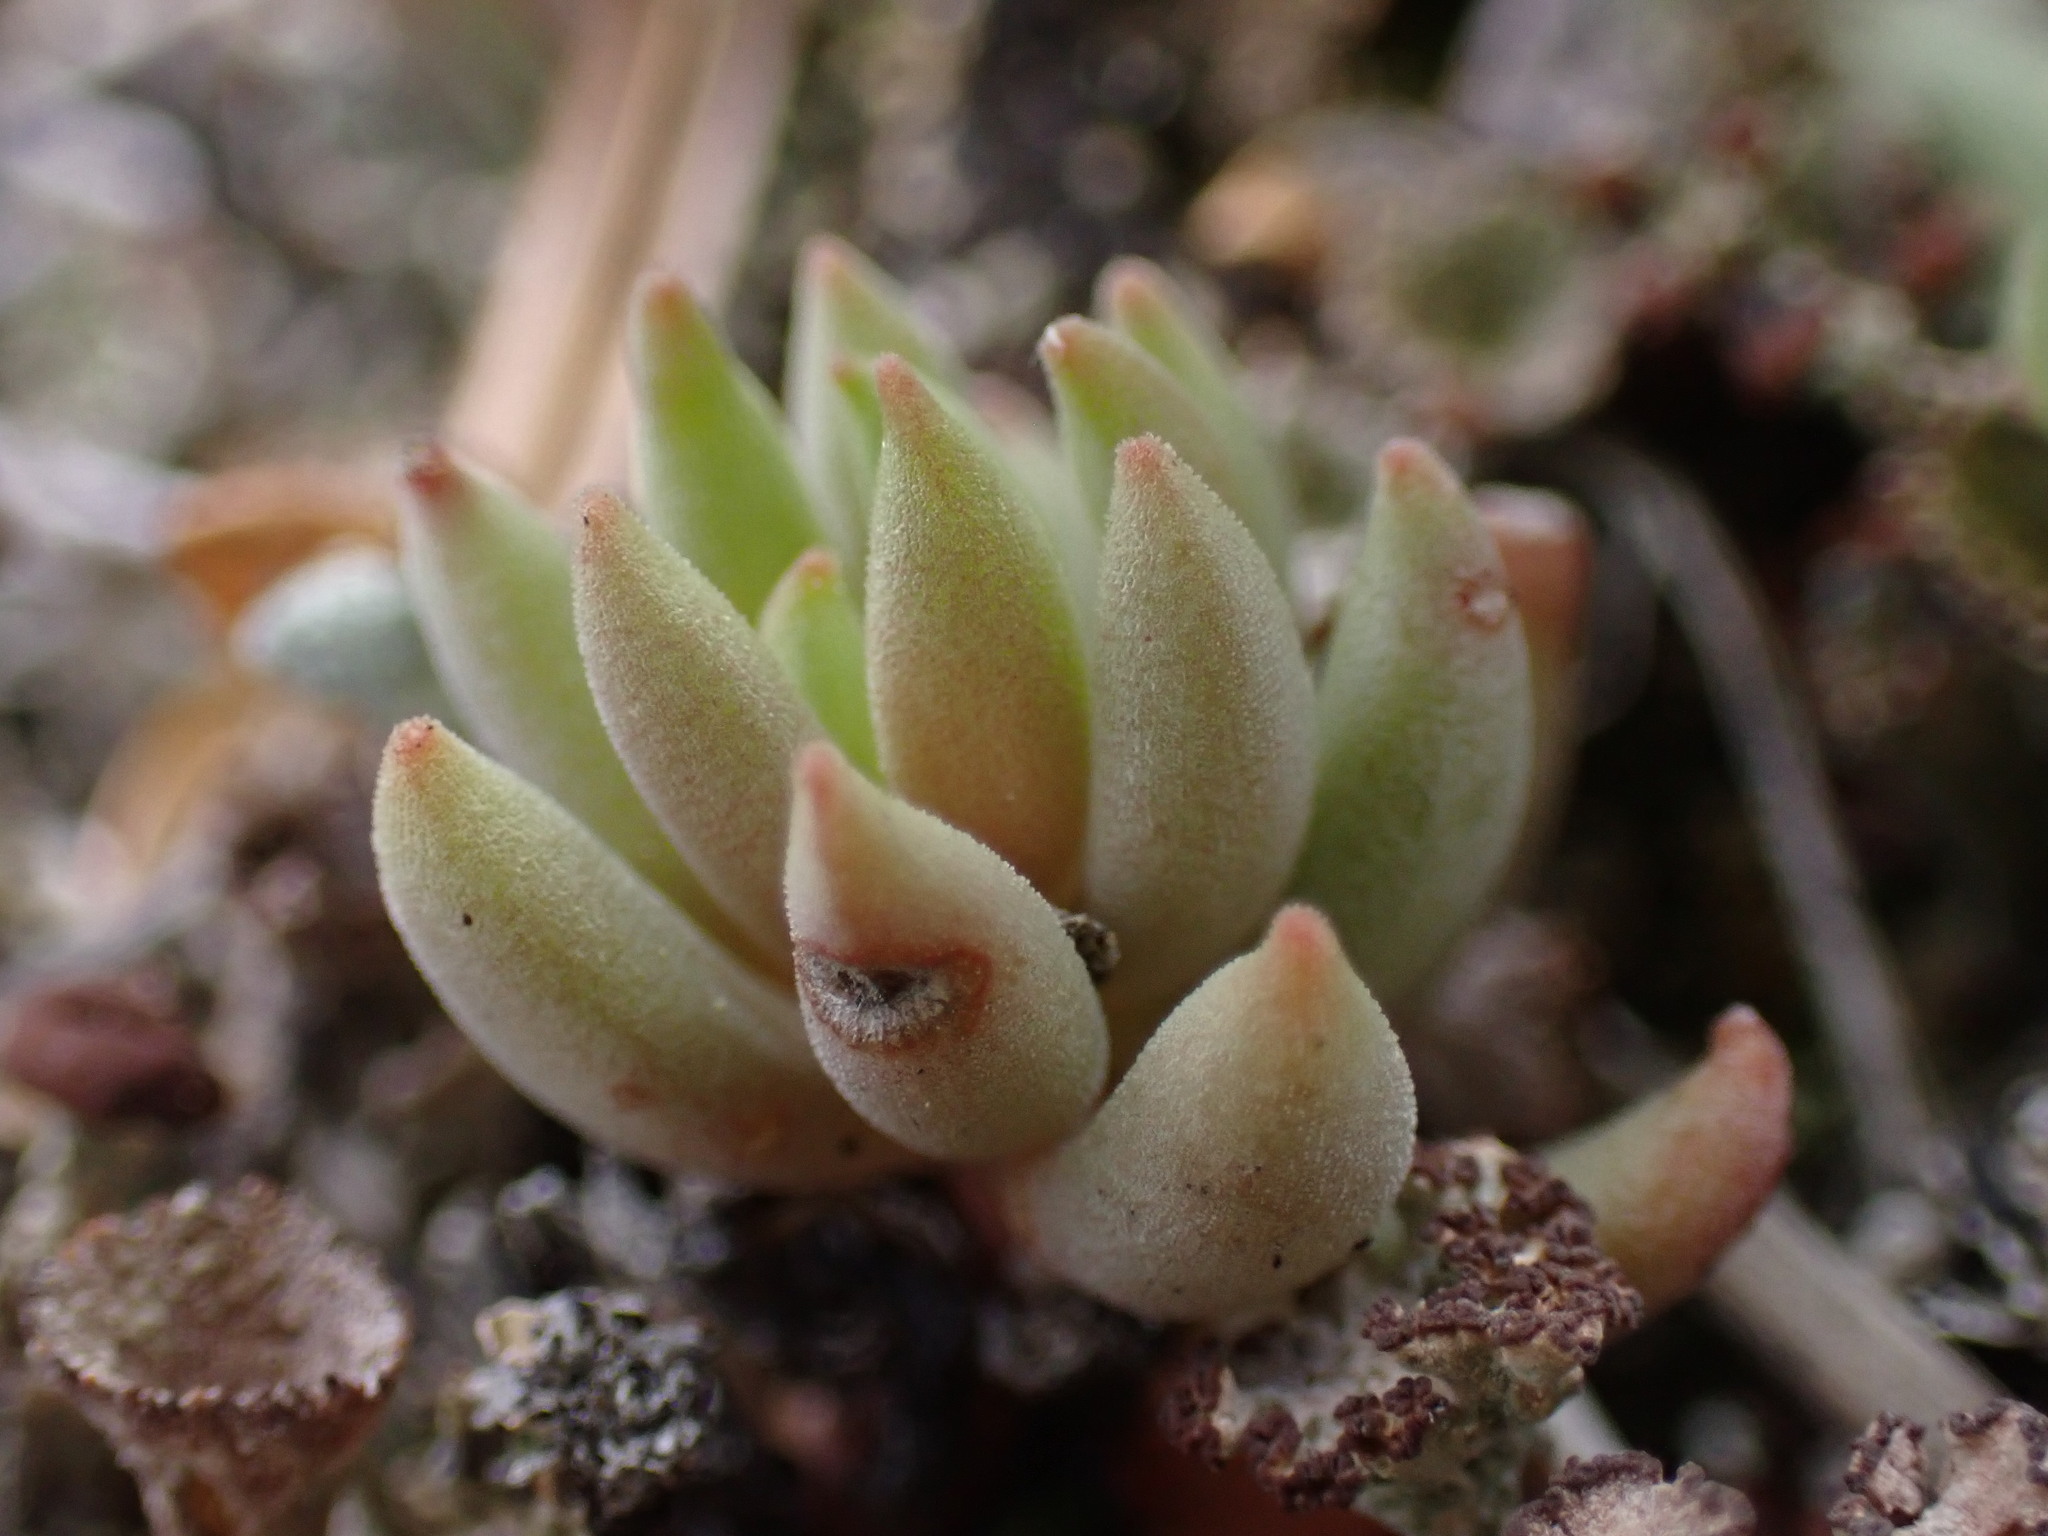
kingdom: Plantae
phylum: Tracheophyta
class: Magnoliopsida
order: Saxifragales
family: Crassulaceae
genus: Sedum
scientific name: Sedum lanceolatum
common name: Common stonecrop
